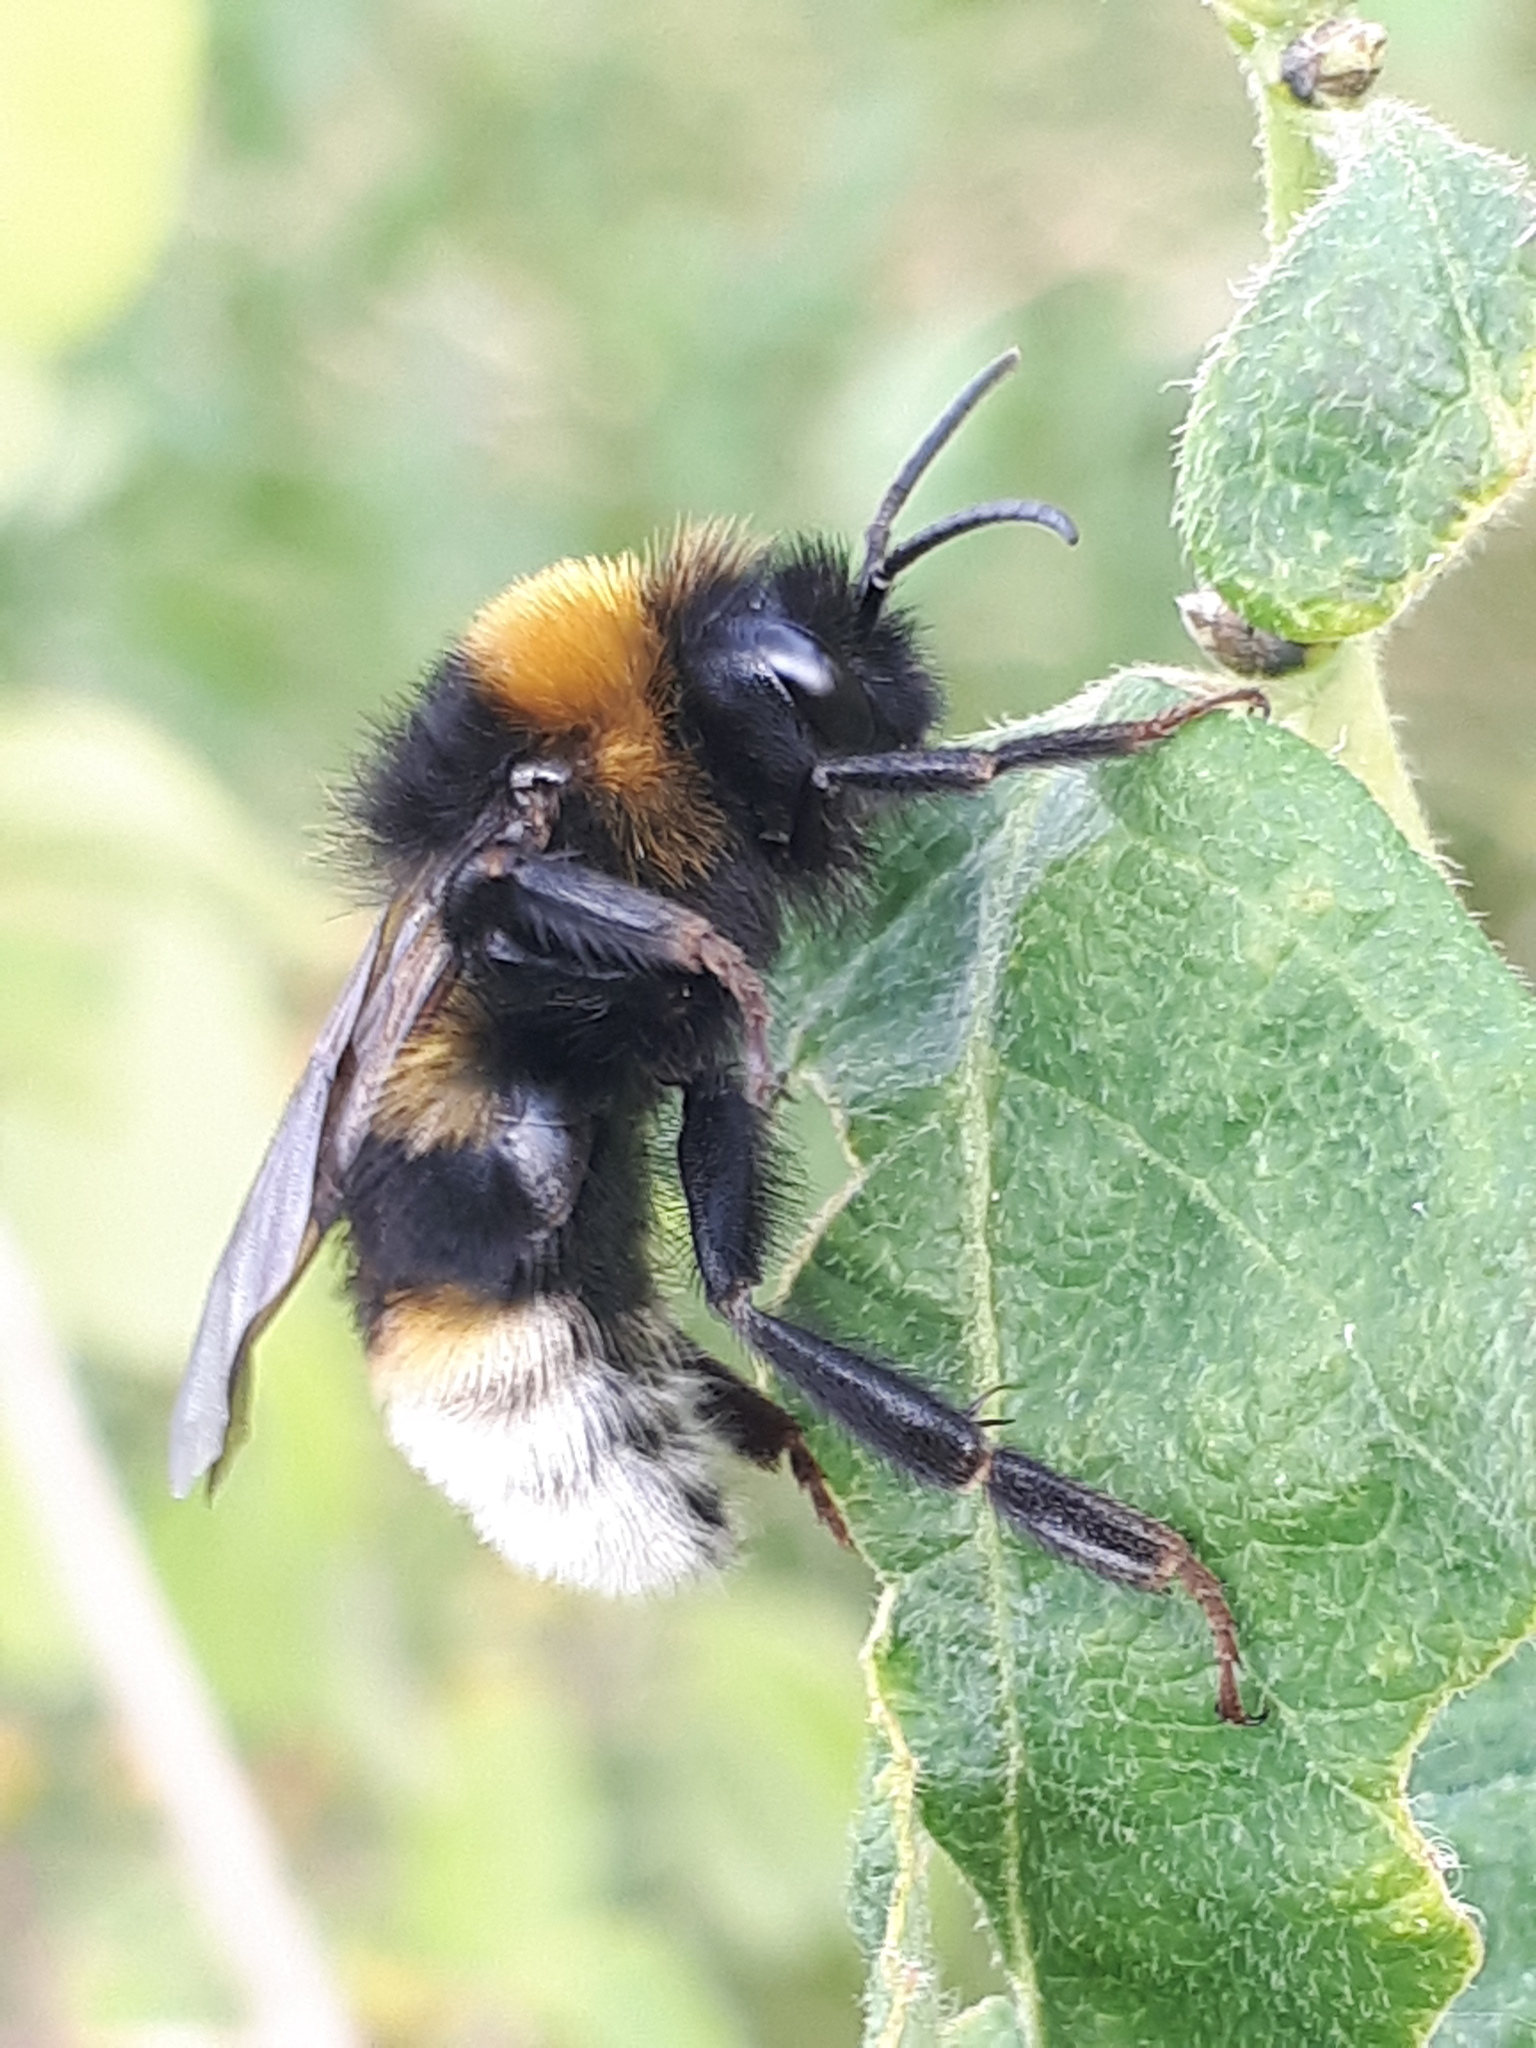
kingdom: Animalia
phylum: Arthropoda
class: Insecta
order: Hymenoptera
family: Apidae
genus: Bombus
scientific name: Bombus vestalis
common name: Vestal cuckoo bee
